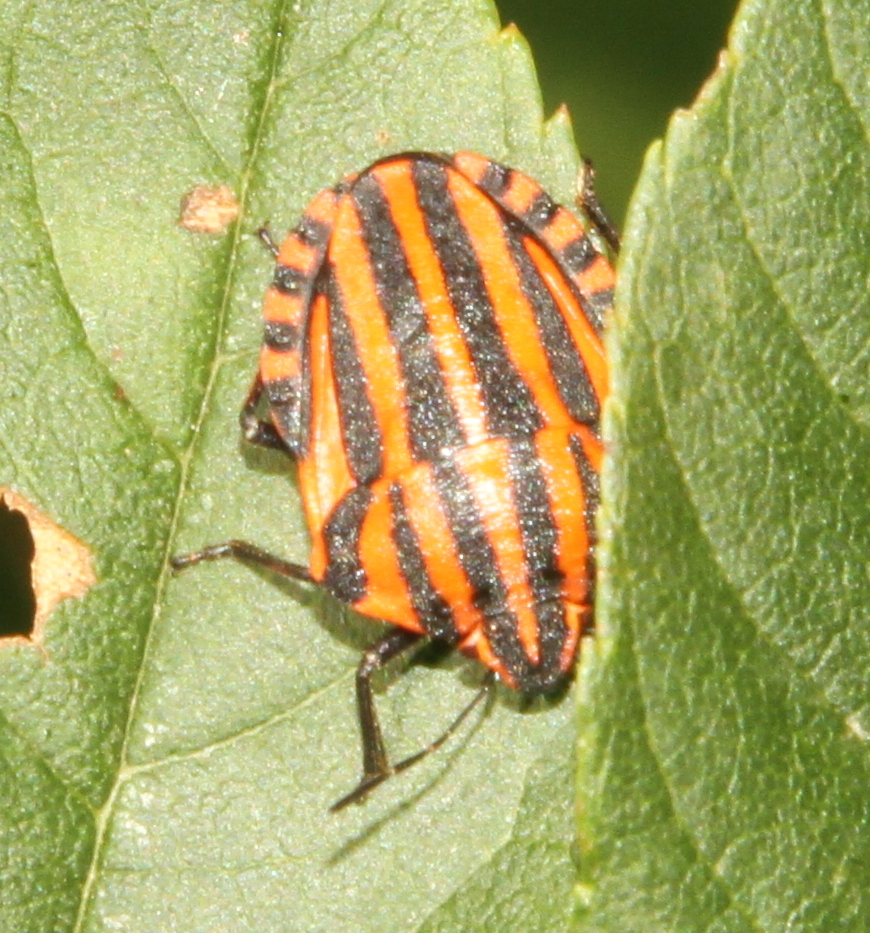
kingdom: Animalia
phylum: Arthropoda
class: Insecta
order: Hemiptera
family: Pentatomidae
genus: Graphosoma
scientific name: Graphosoma italicum
